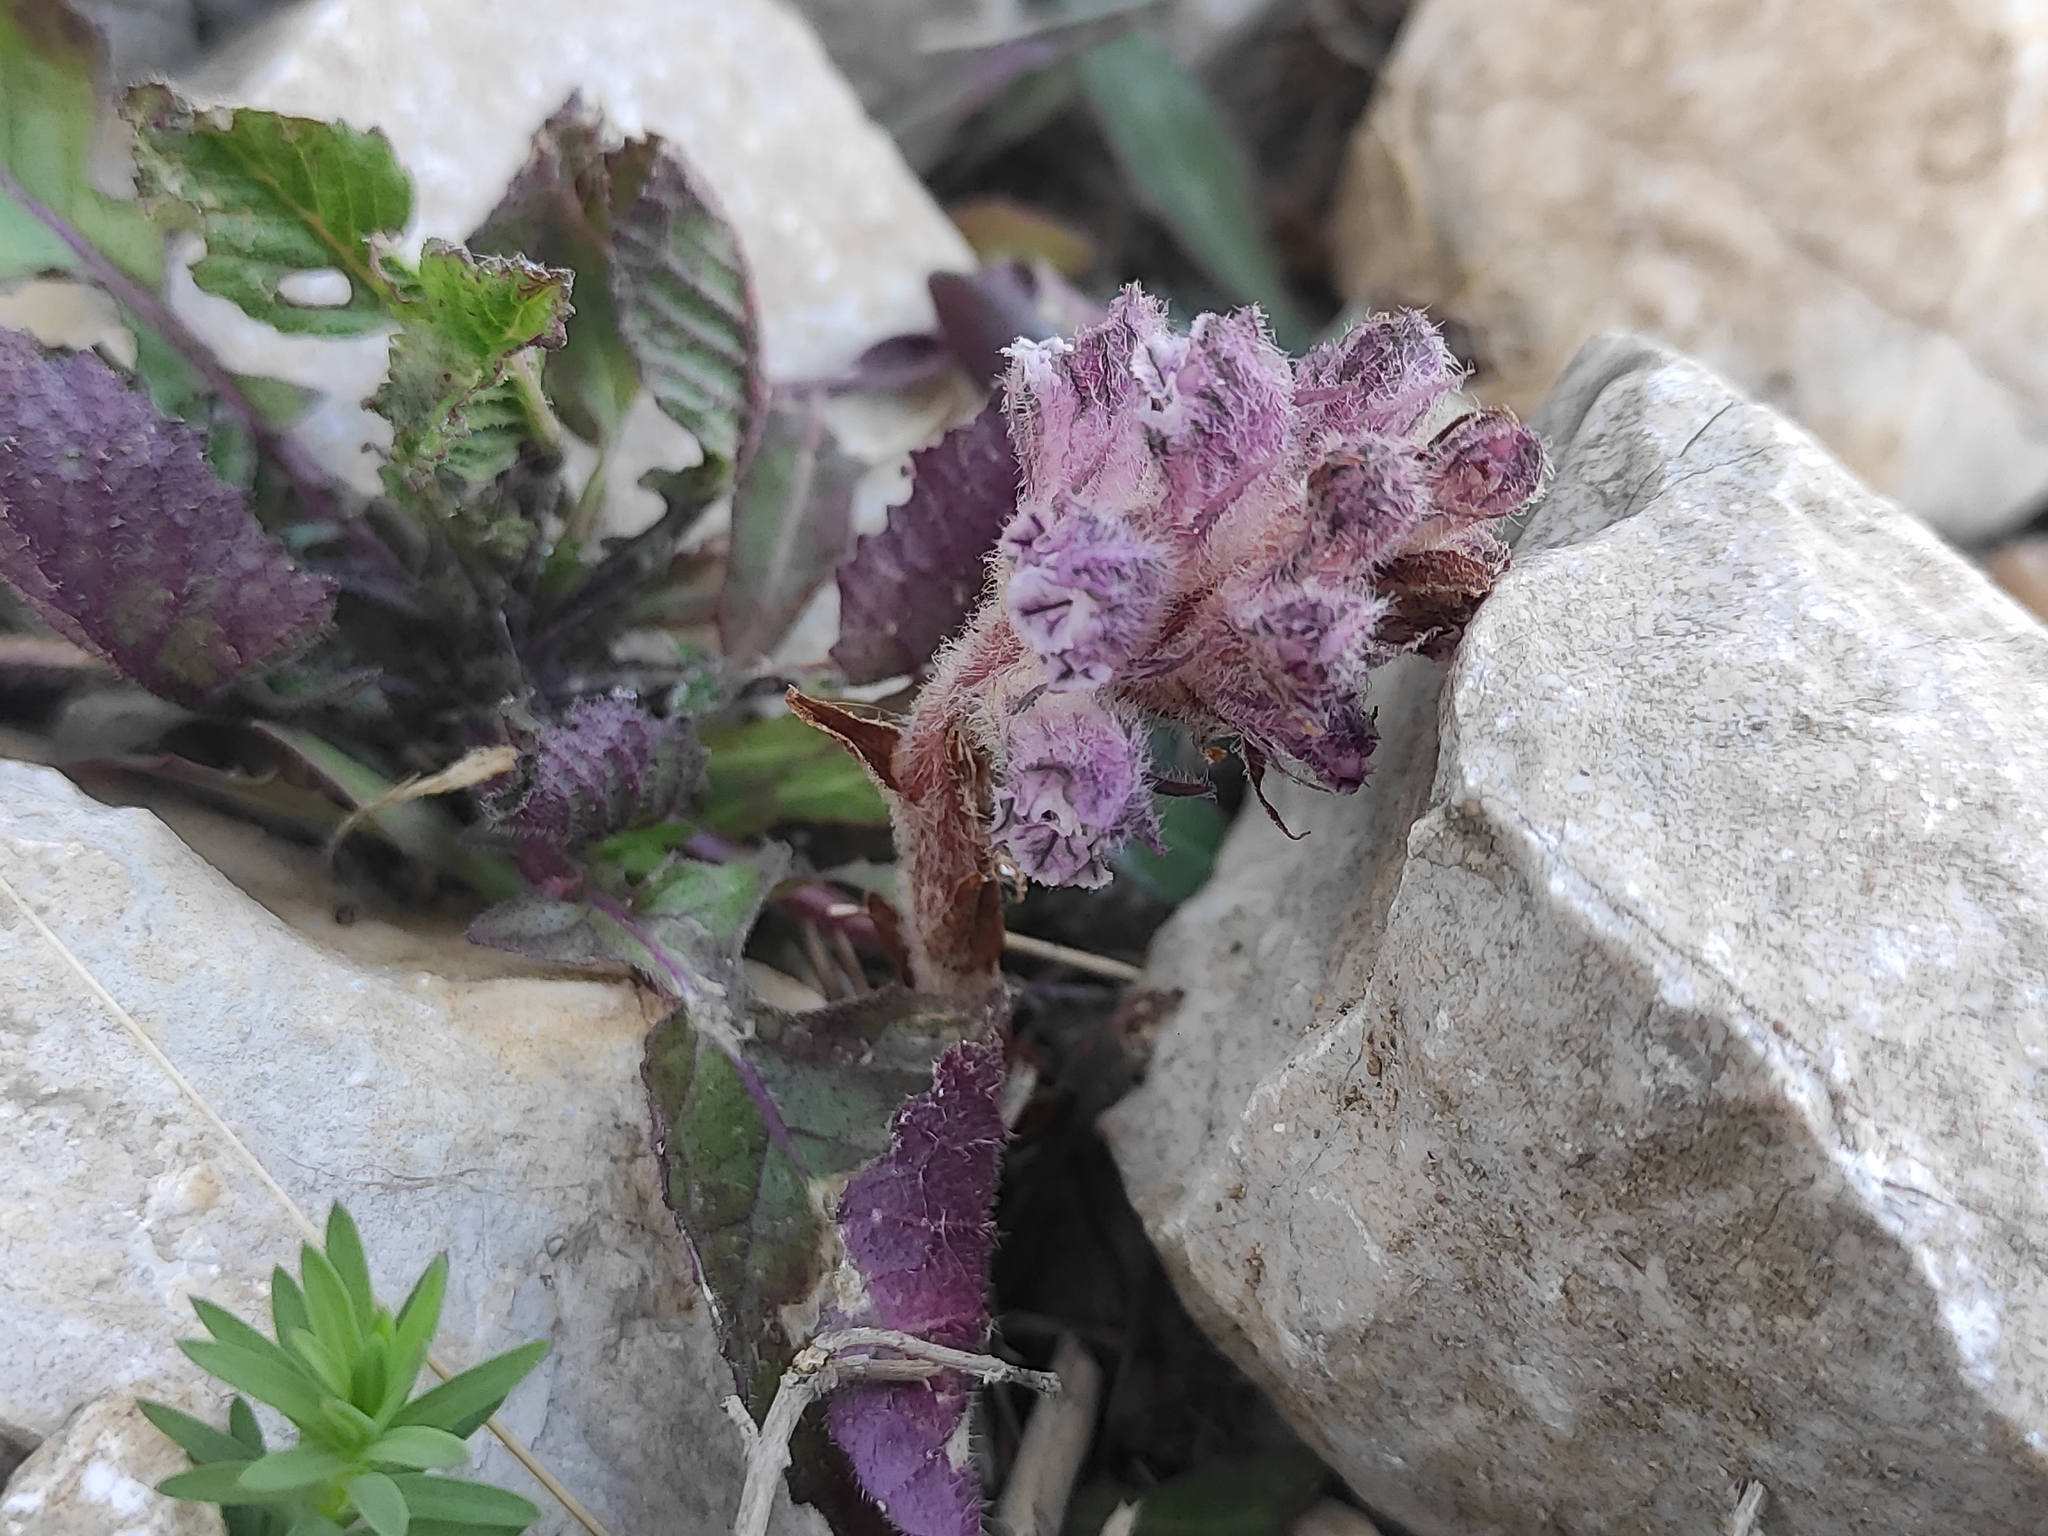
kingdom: Plantae
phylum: Tracheophyta
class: Magnoliopsida
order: Lamiales
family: Orobanchaceae
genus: Orobanche
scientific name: Orobanche pubescens
